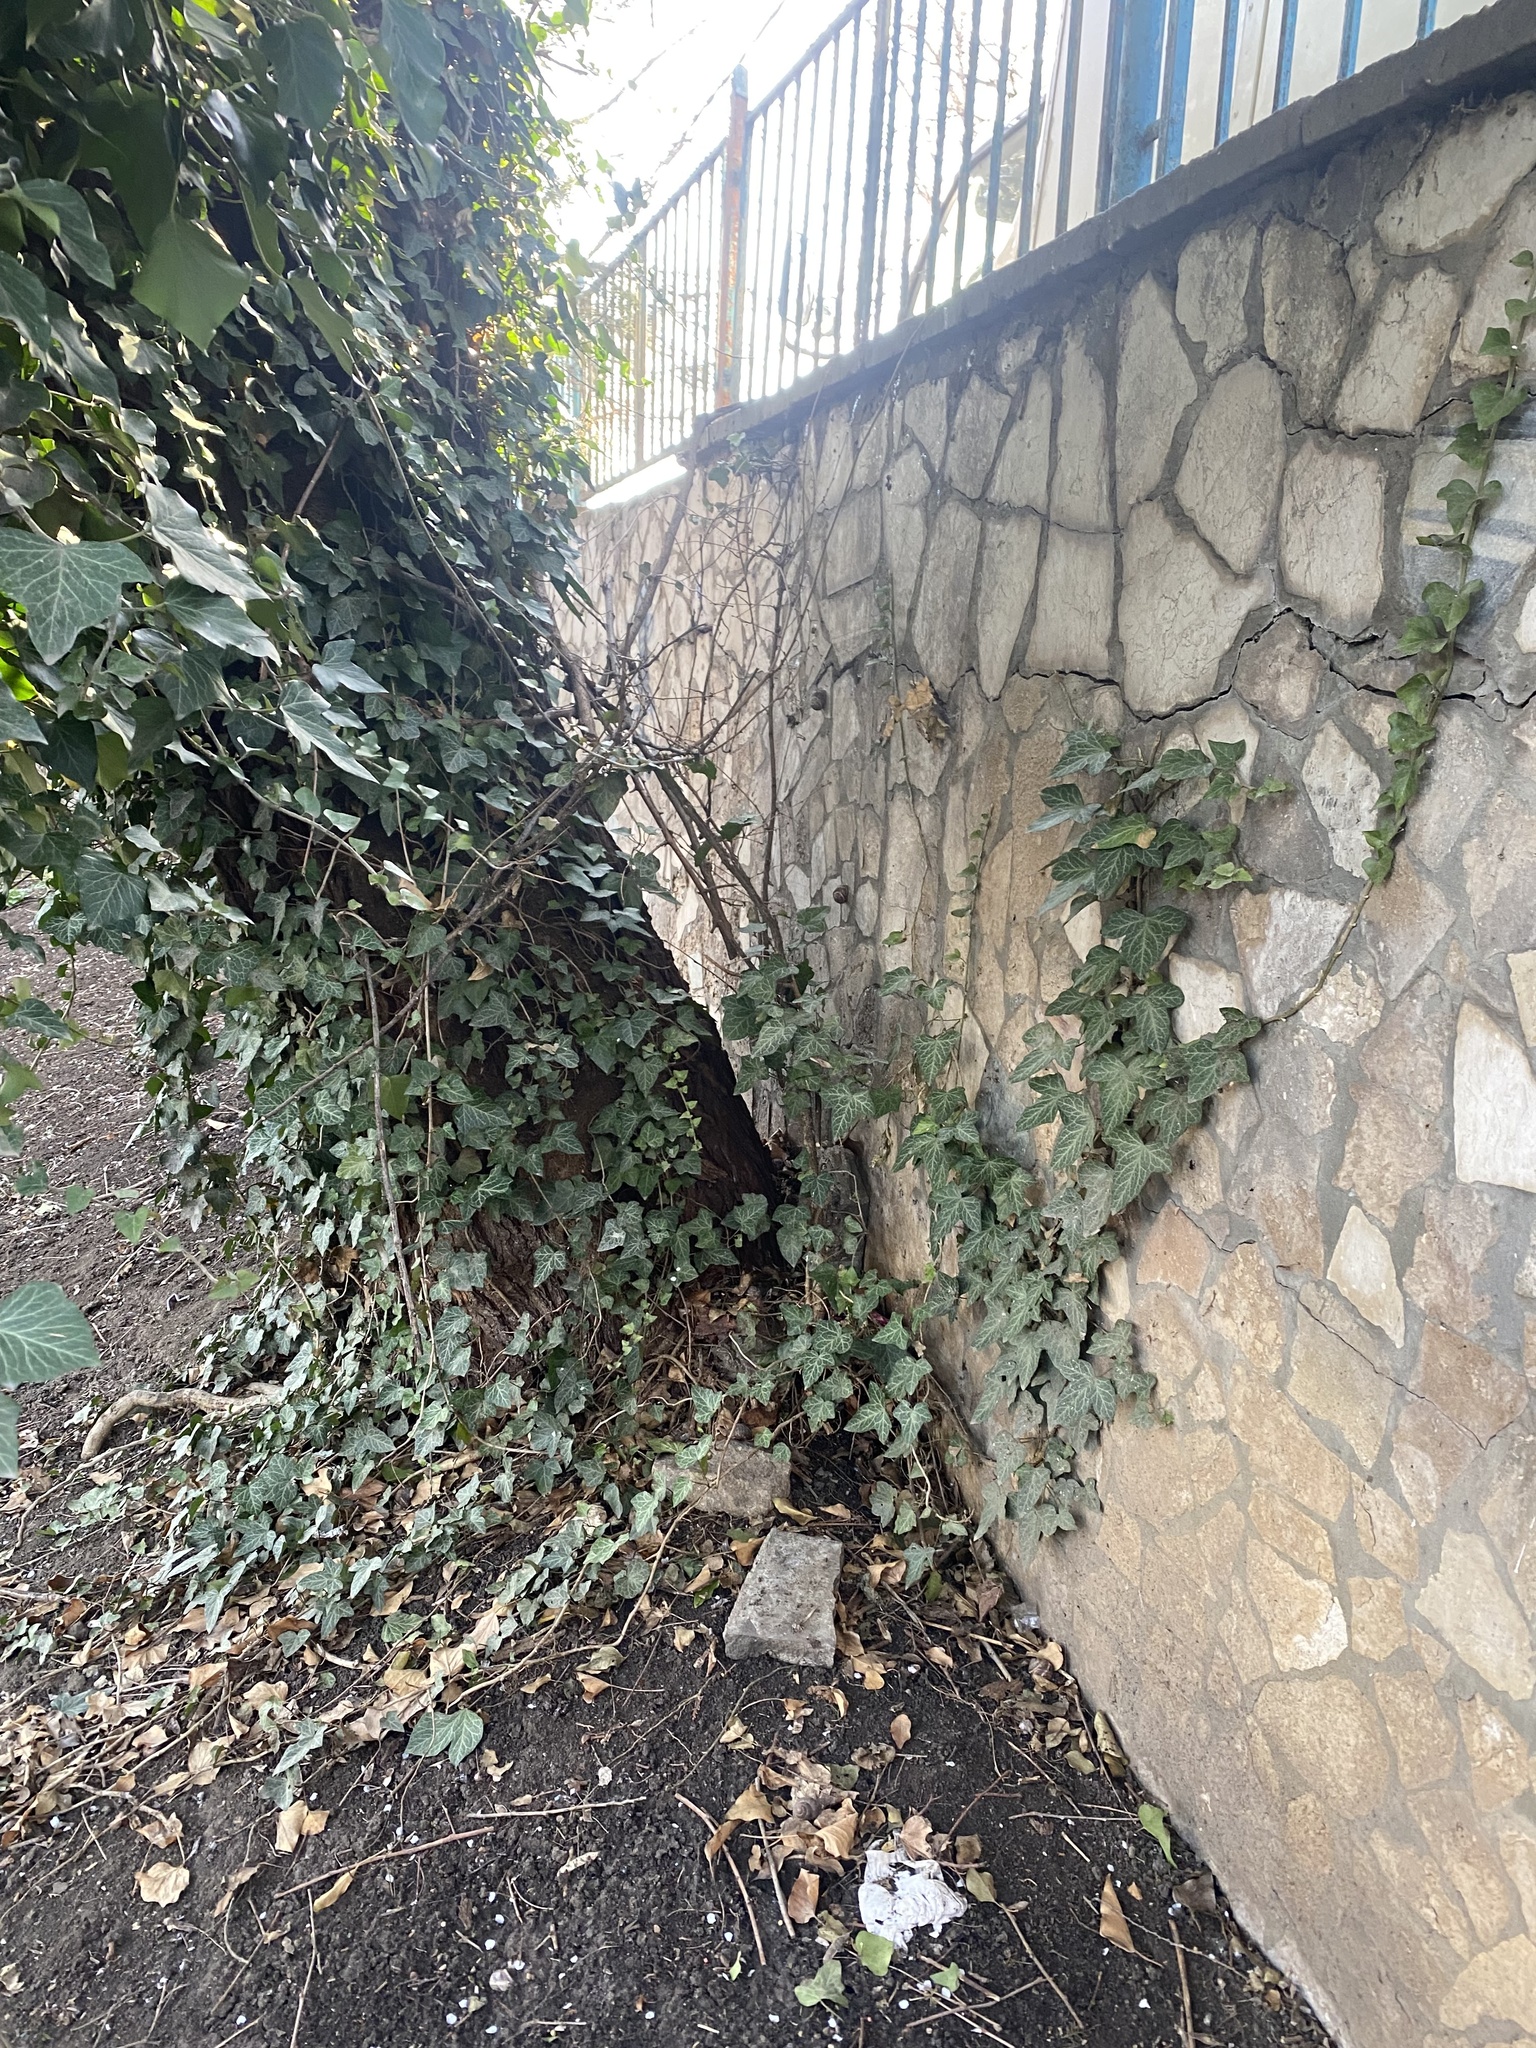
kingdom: Plantae
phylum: Tracheophyta
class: Magnoliopsida
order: Apiales
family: Araliaceae
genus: Hedera
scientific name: Hedera helix
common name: Ivy
